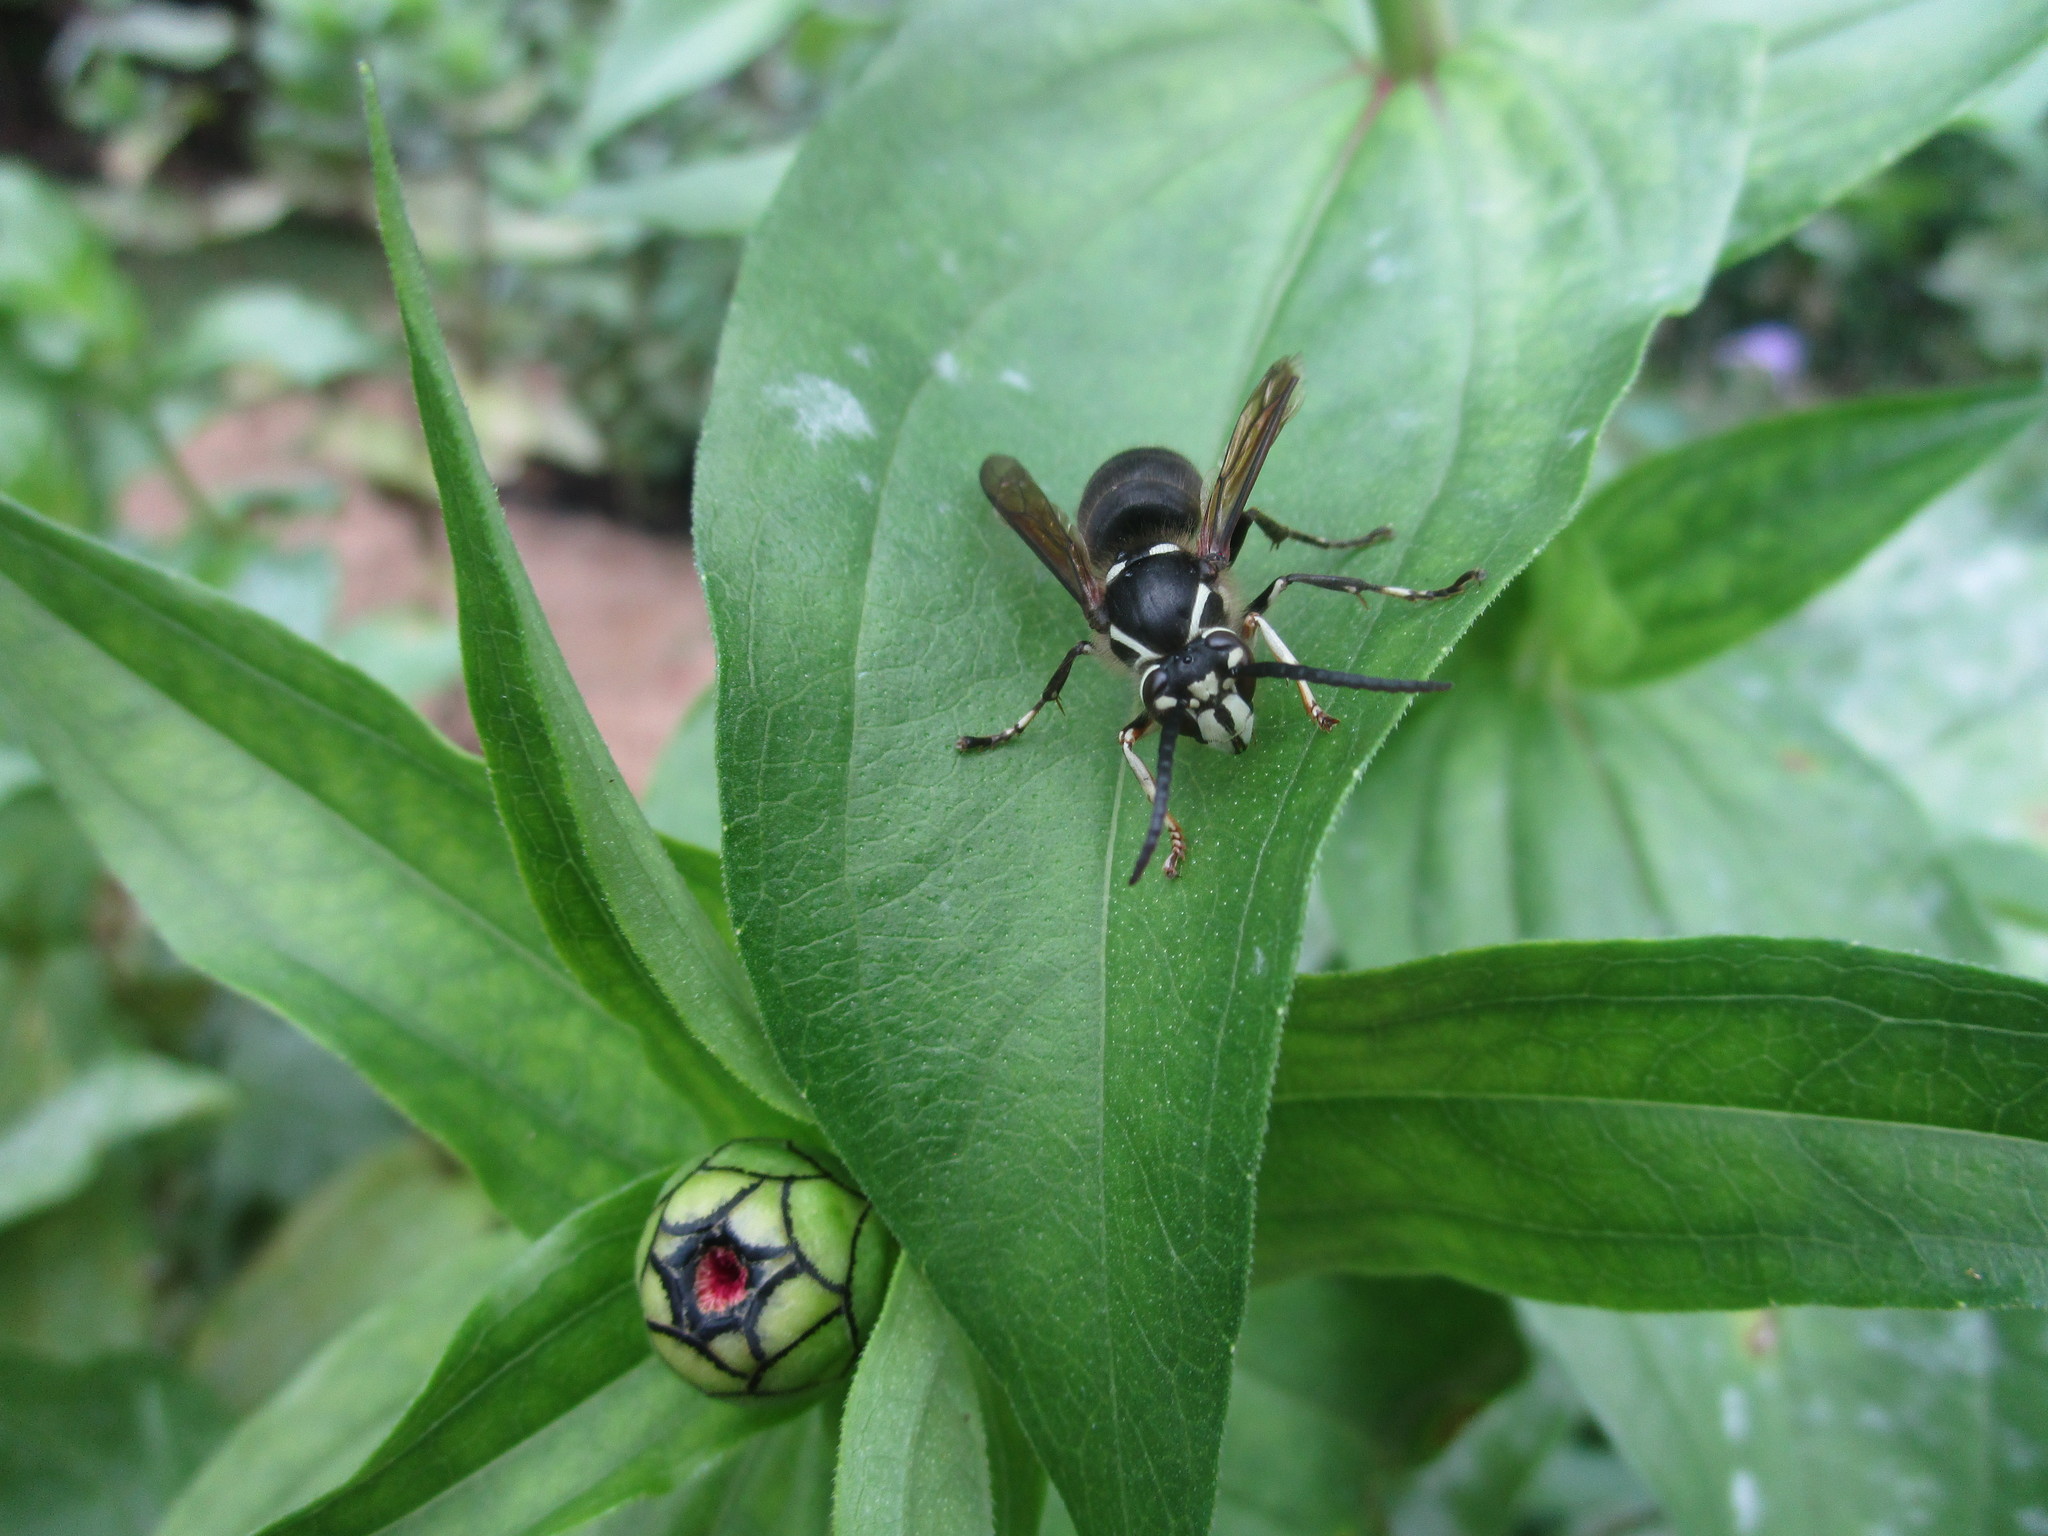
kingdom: Animalia
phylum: Arthropoda
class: Insecta
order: Hymenoptera
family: Vespidae
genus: Dolichovespula
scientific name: Dolichovespula maculata
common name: Bald-faced hornet
